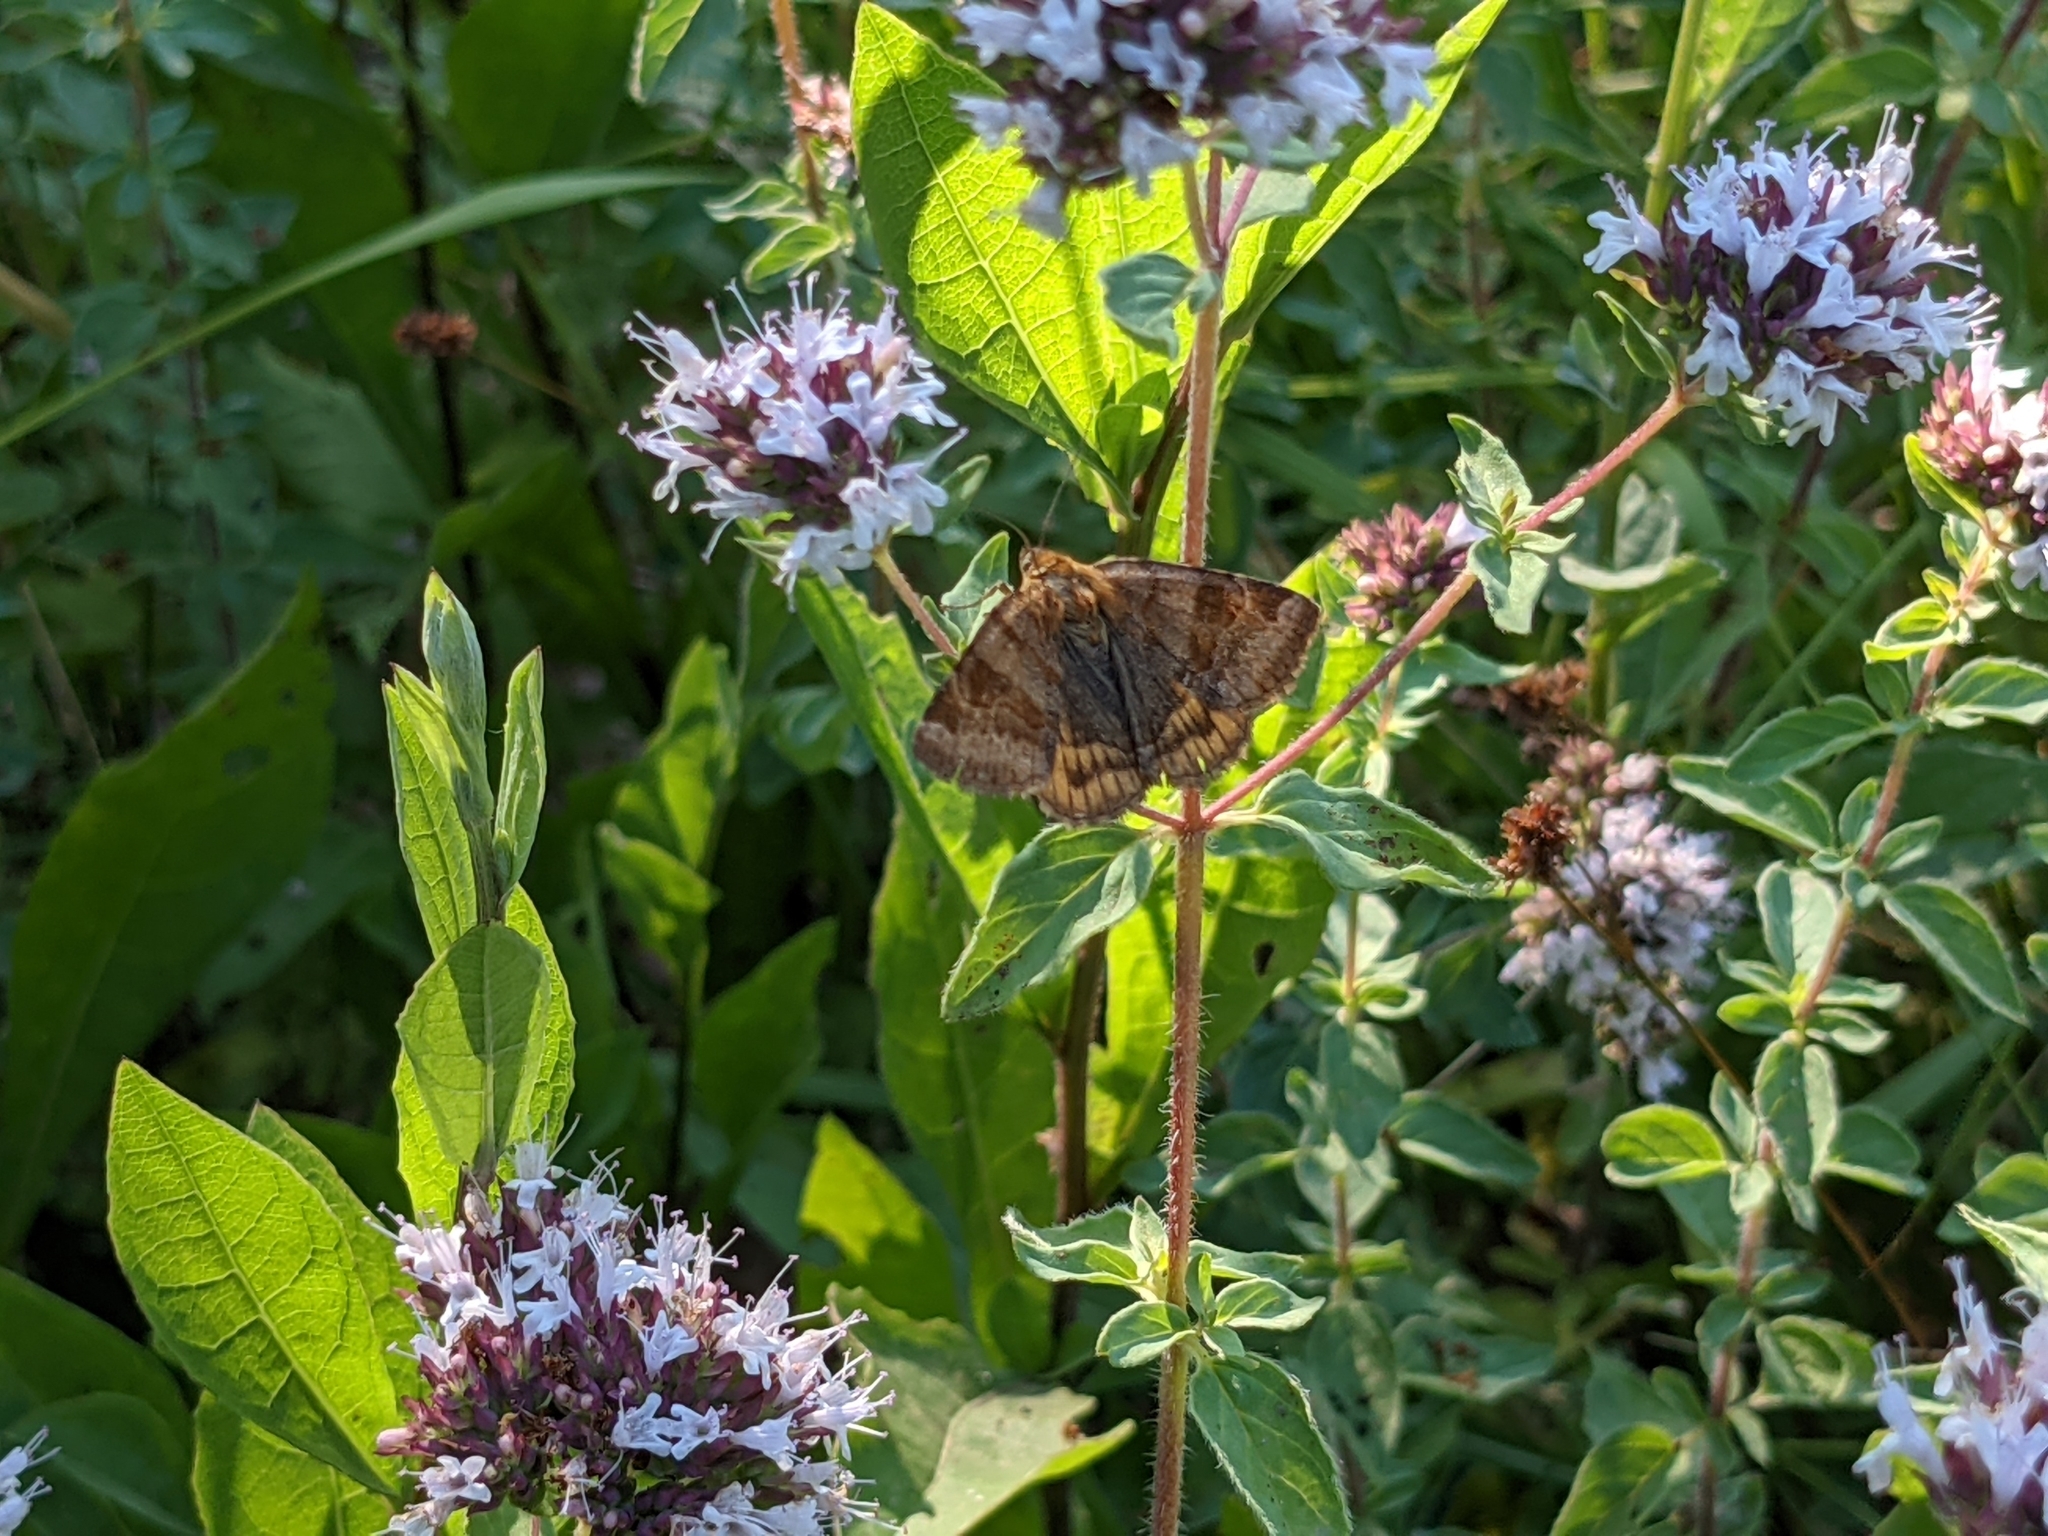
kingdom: Plantae
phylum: Tracheophyta
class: Magnoliopsida
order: Lamiales
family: Lamiaceae
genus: Origanum
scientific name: Origanum vulgare
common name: Wild marjoram
